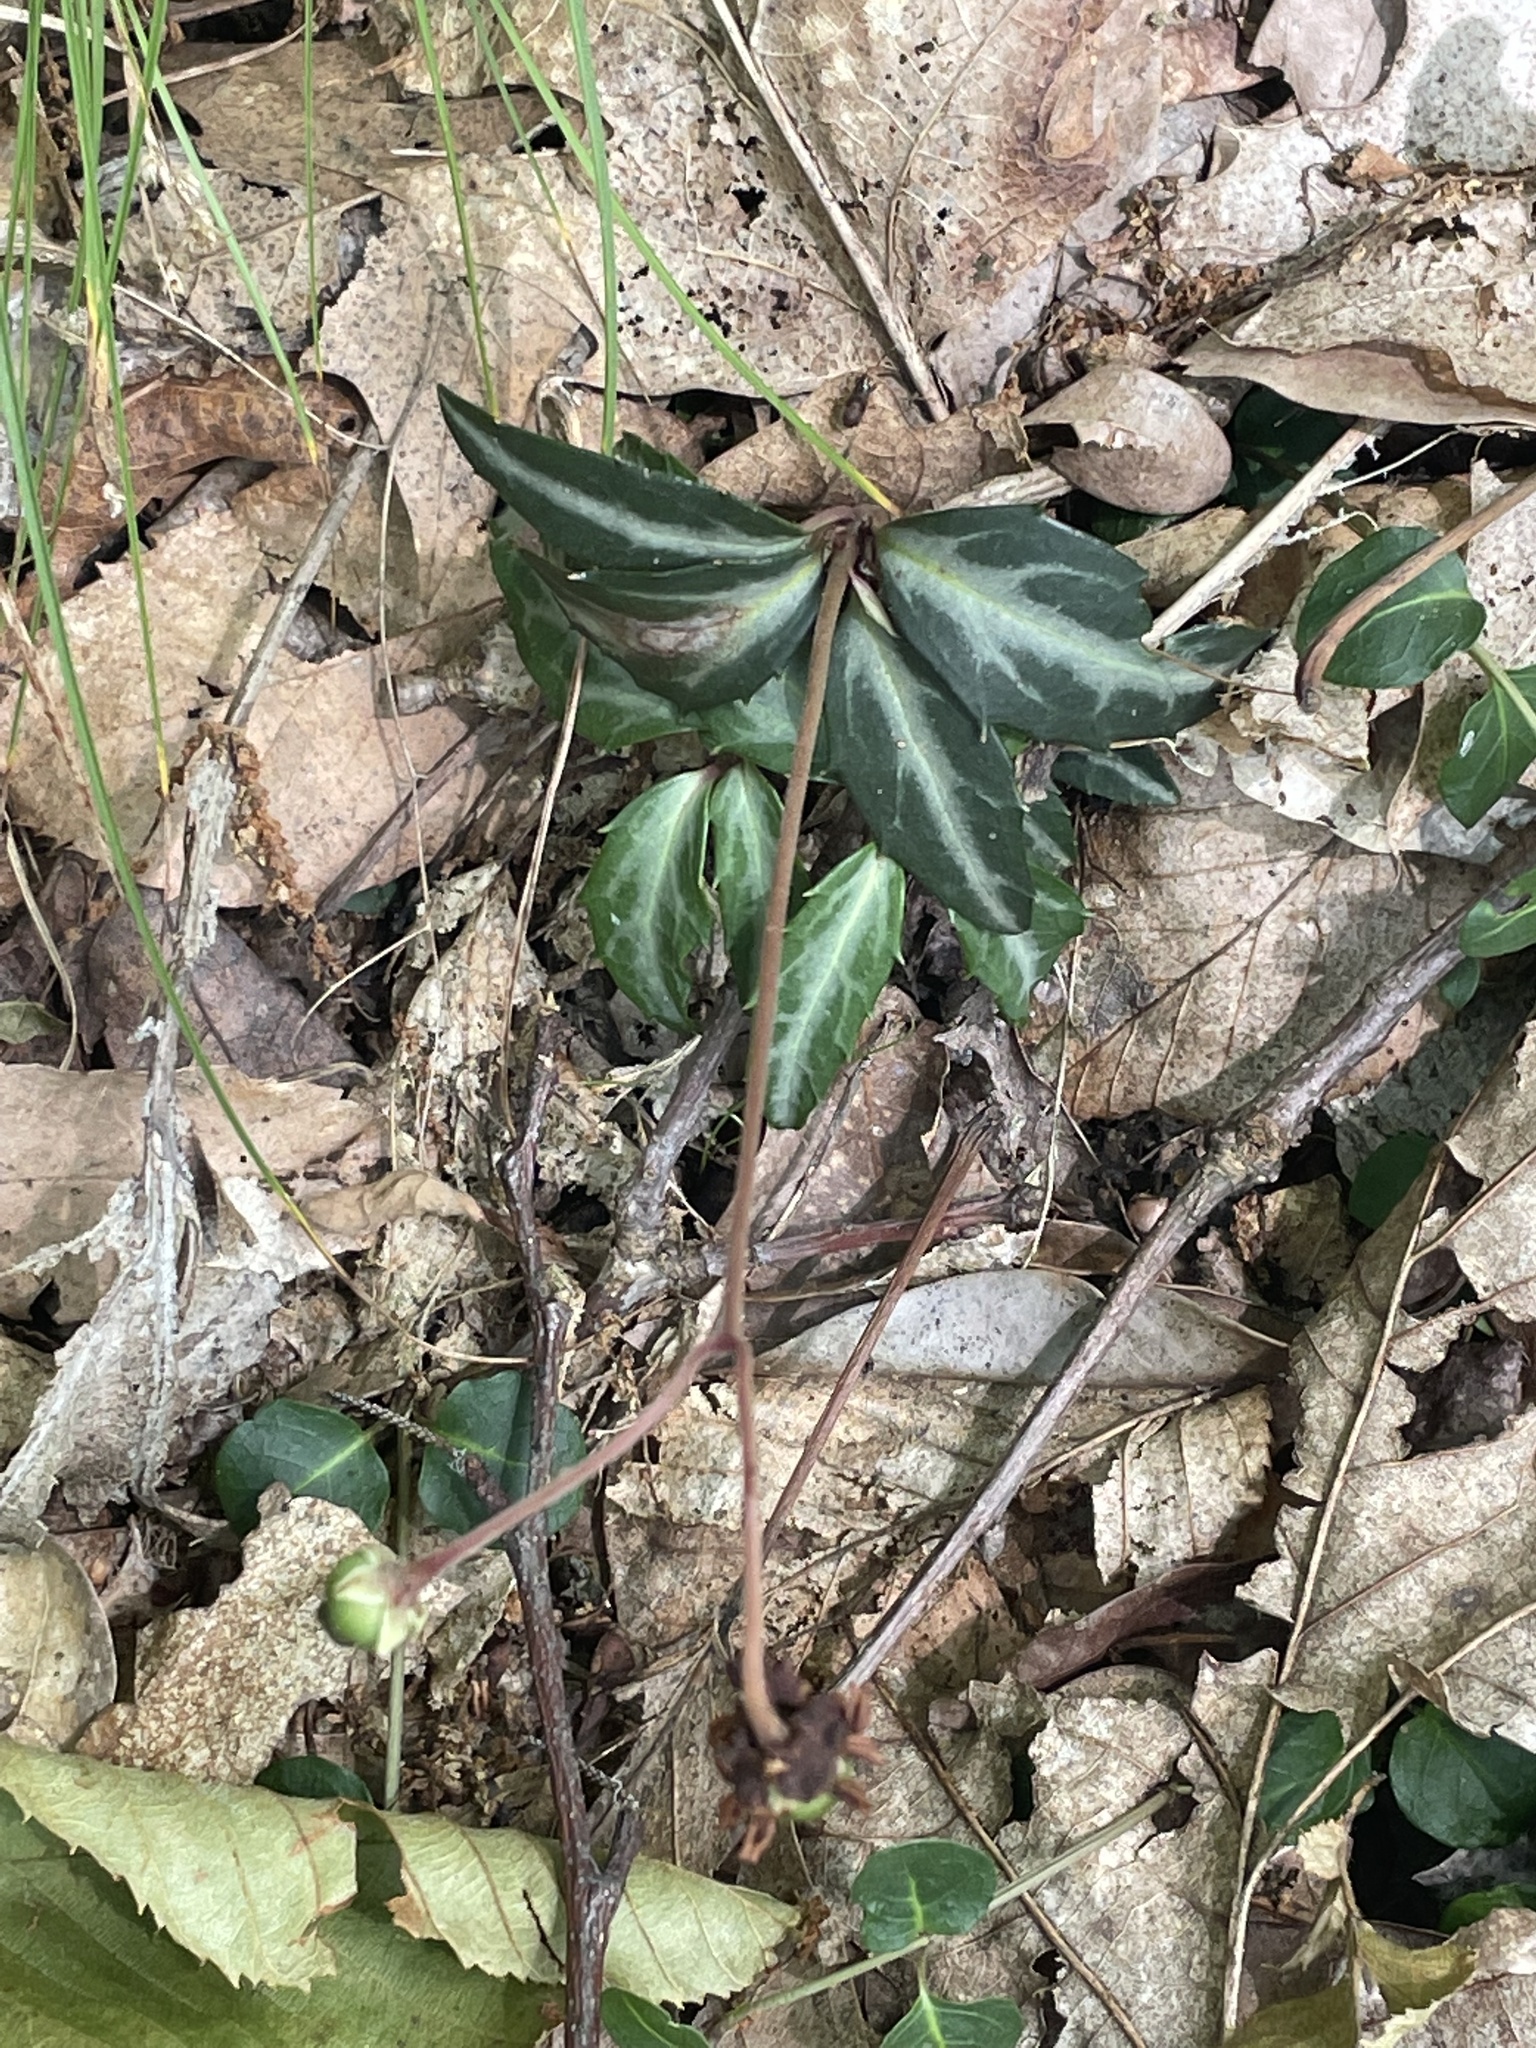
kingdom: Plantae
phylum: Tracheophyta
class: Magnoliopsida
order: Ericales
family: Ericaceae
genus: Chimaphila
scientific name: Chimaphila maculata
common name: Spotted pipsissewa
